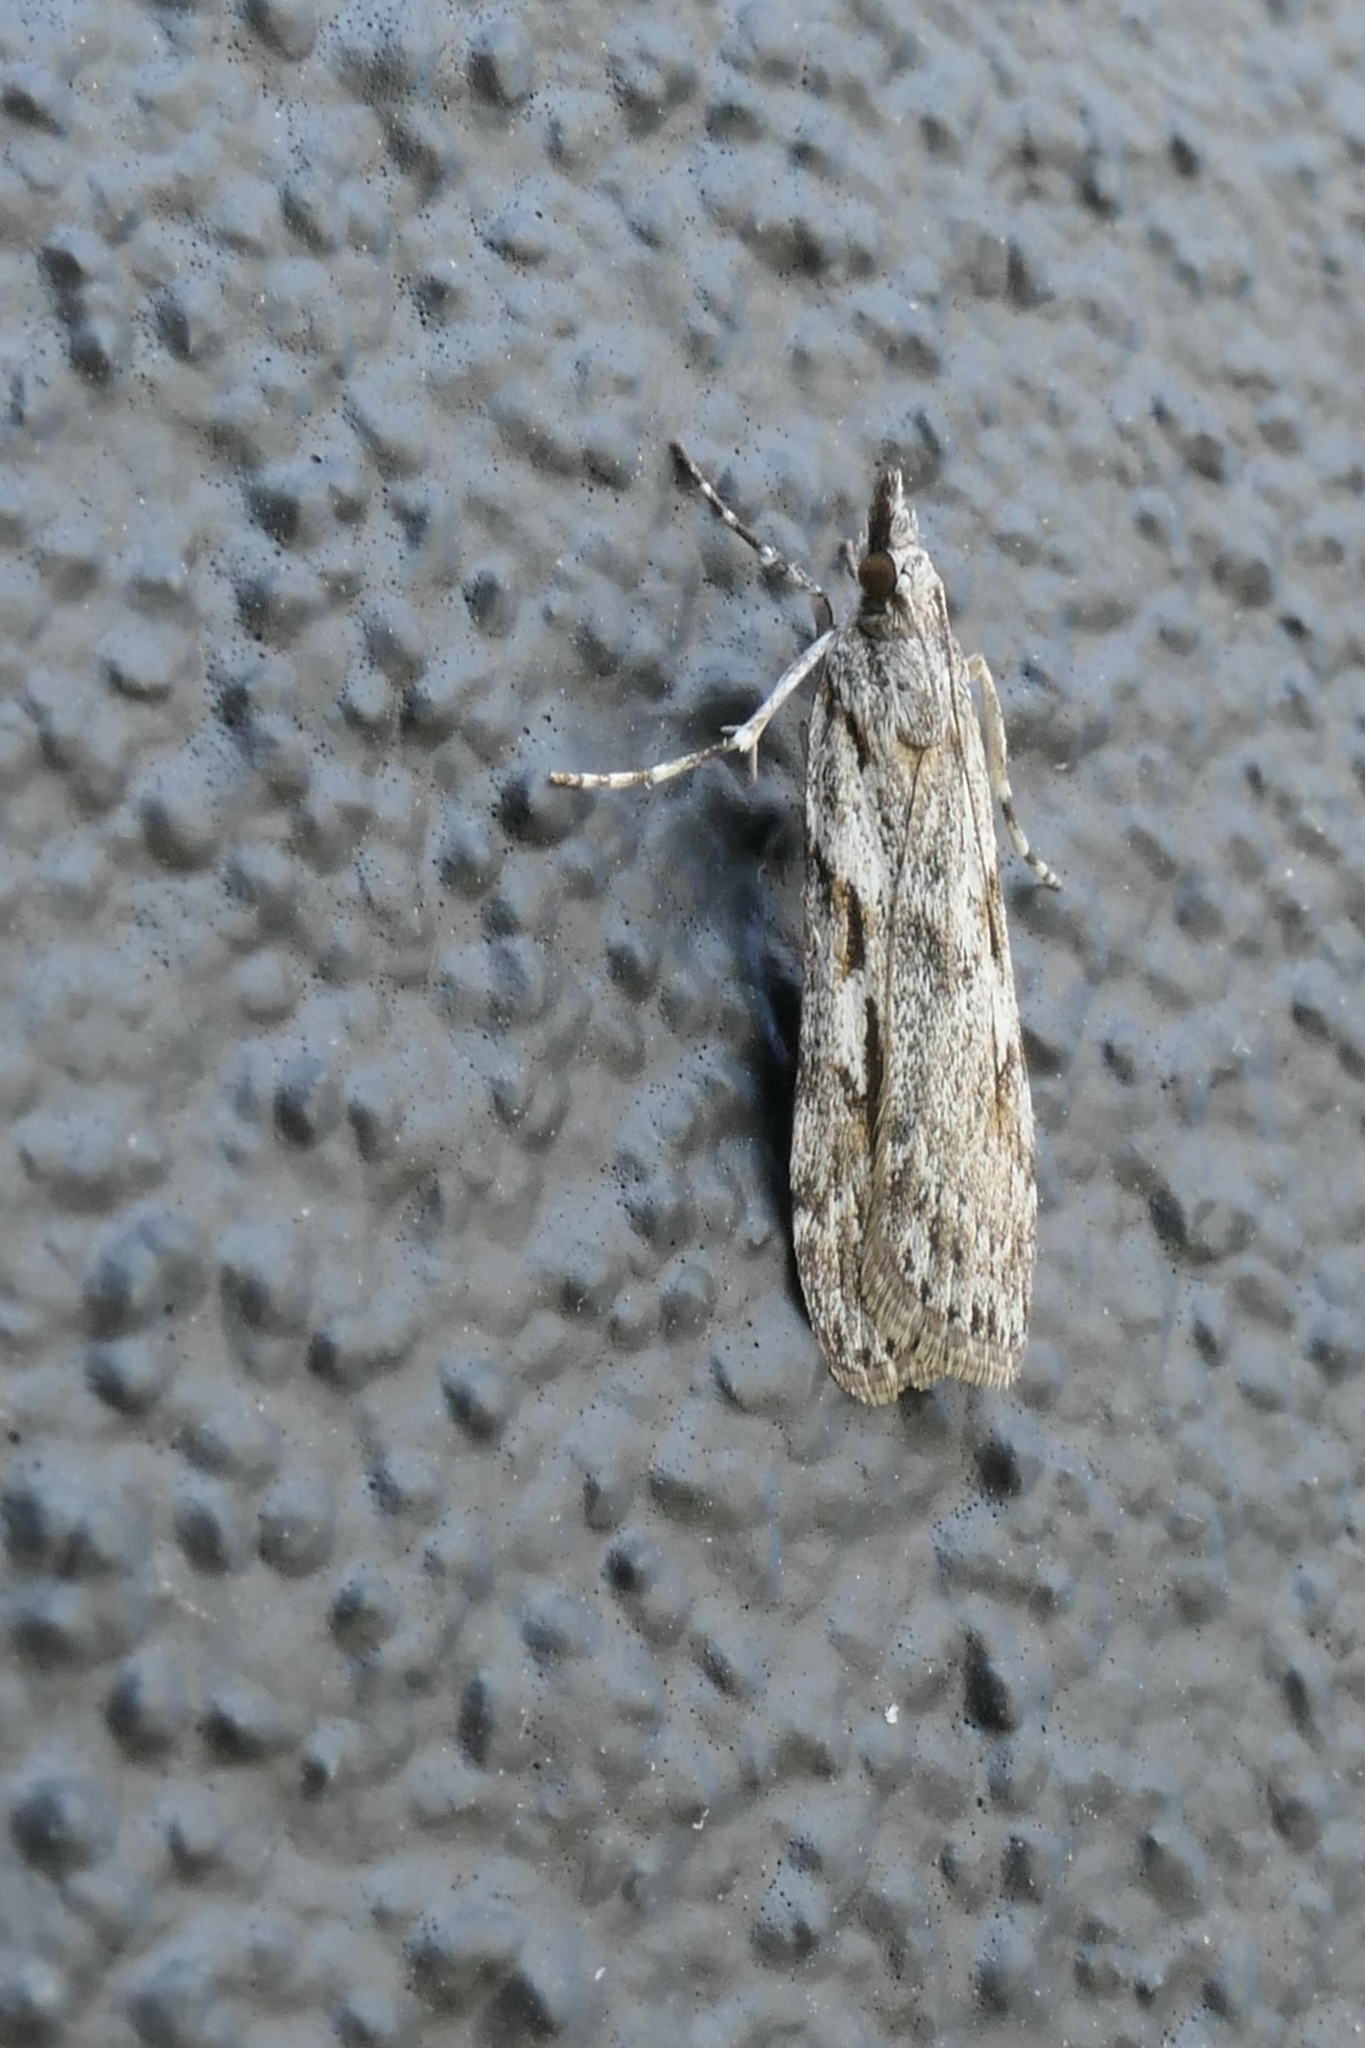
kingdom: Animalia
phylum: Arthropoda
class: Insecta
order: Lepidoptera
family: Crambidae
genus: Scoparia
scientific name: Scoparia halopis
